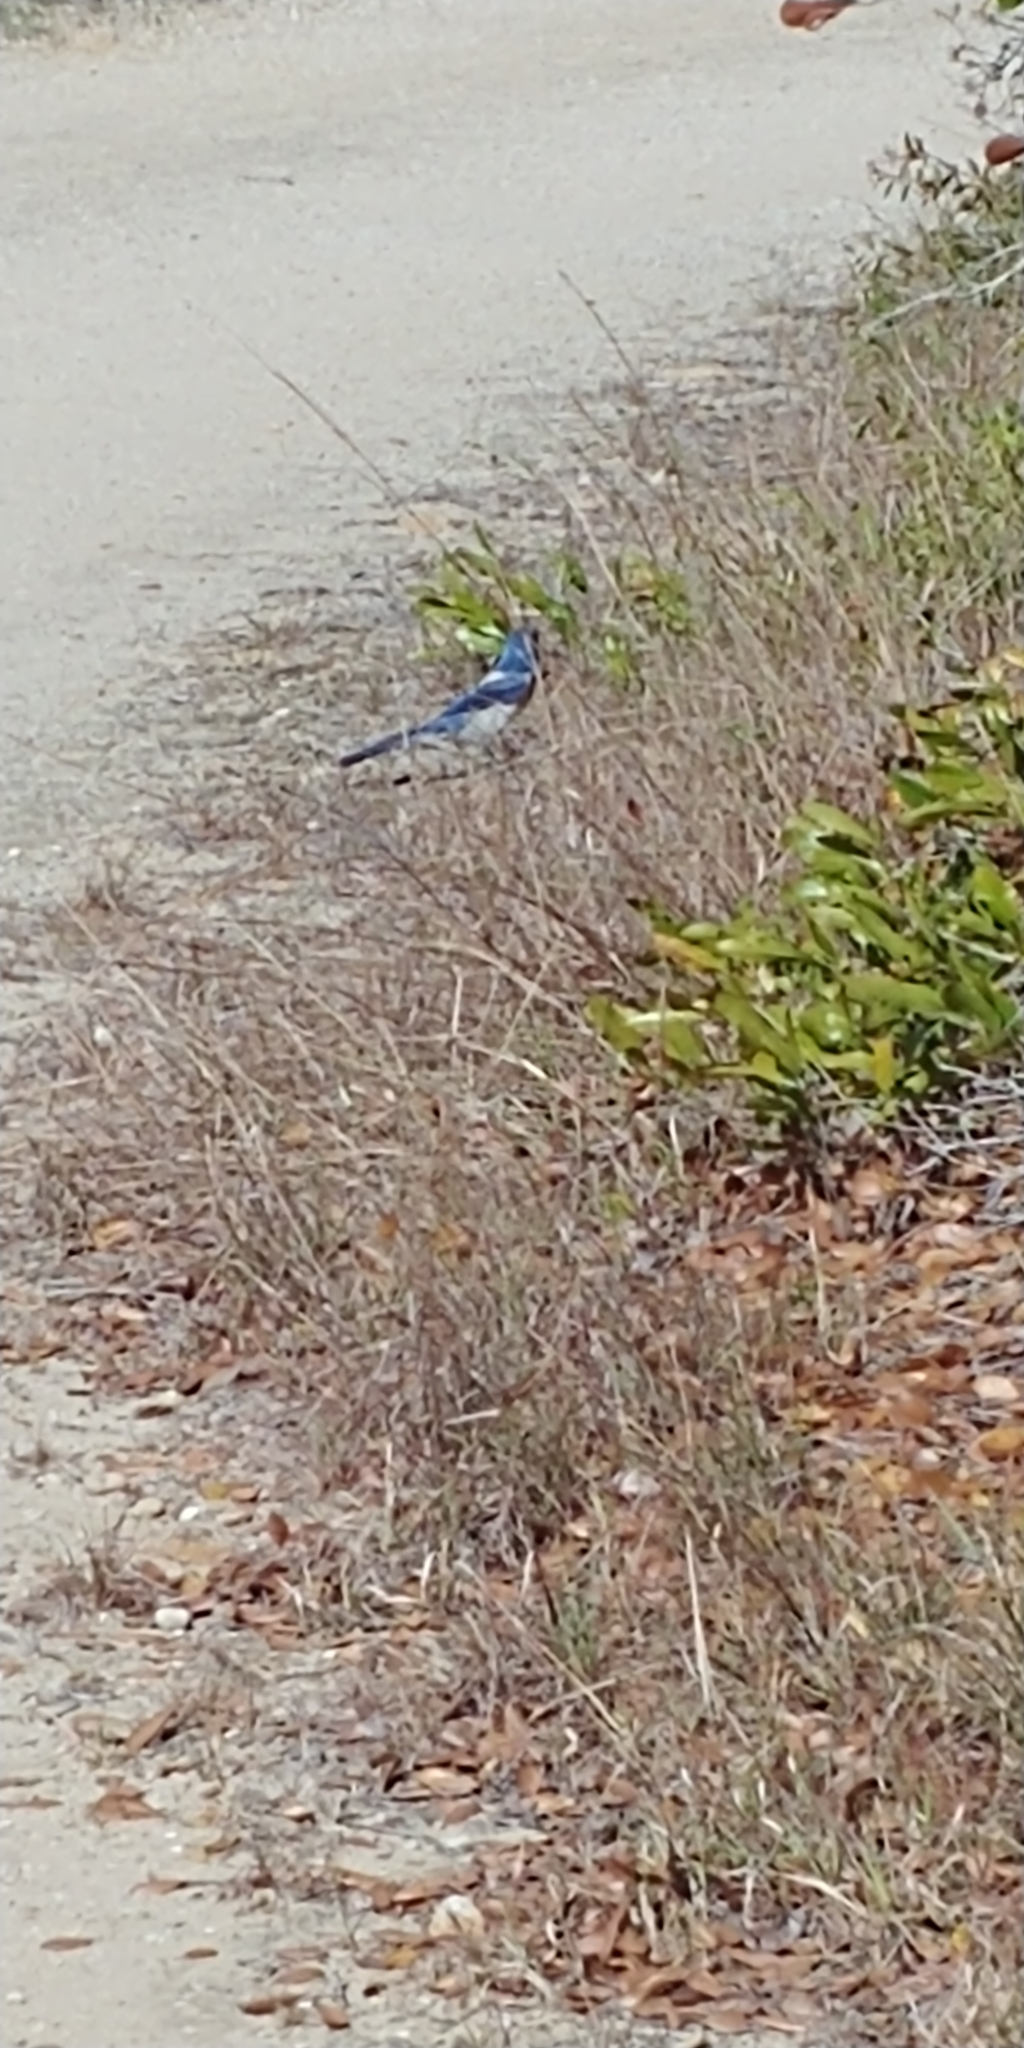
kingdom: Animalia
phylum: Chordata
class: Aves
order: Passeriformes
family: Corvidae
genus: Aphelocoma
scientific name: Aphelocoma coerulescens
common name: Florida scrub jay
